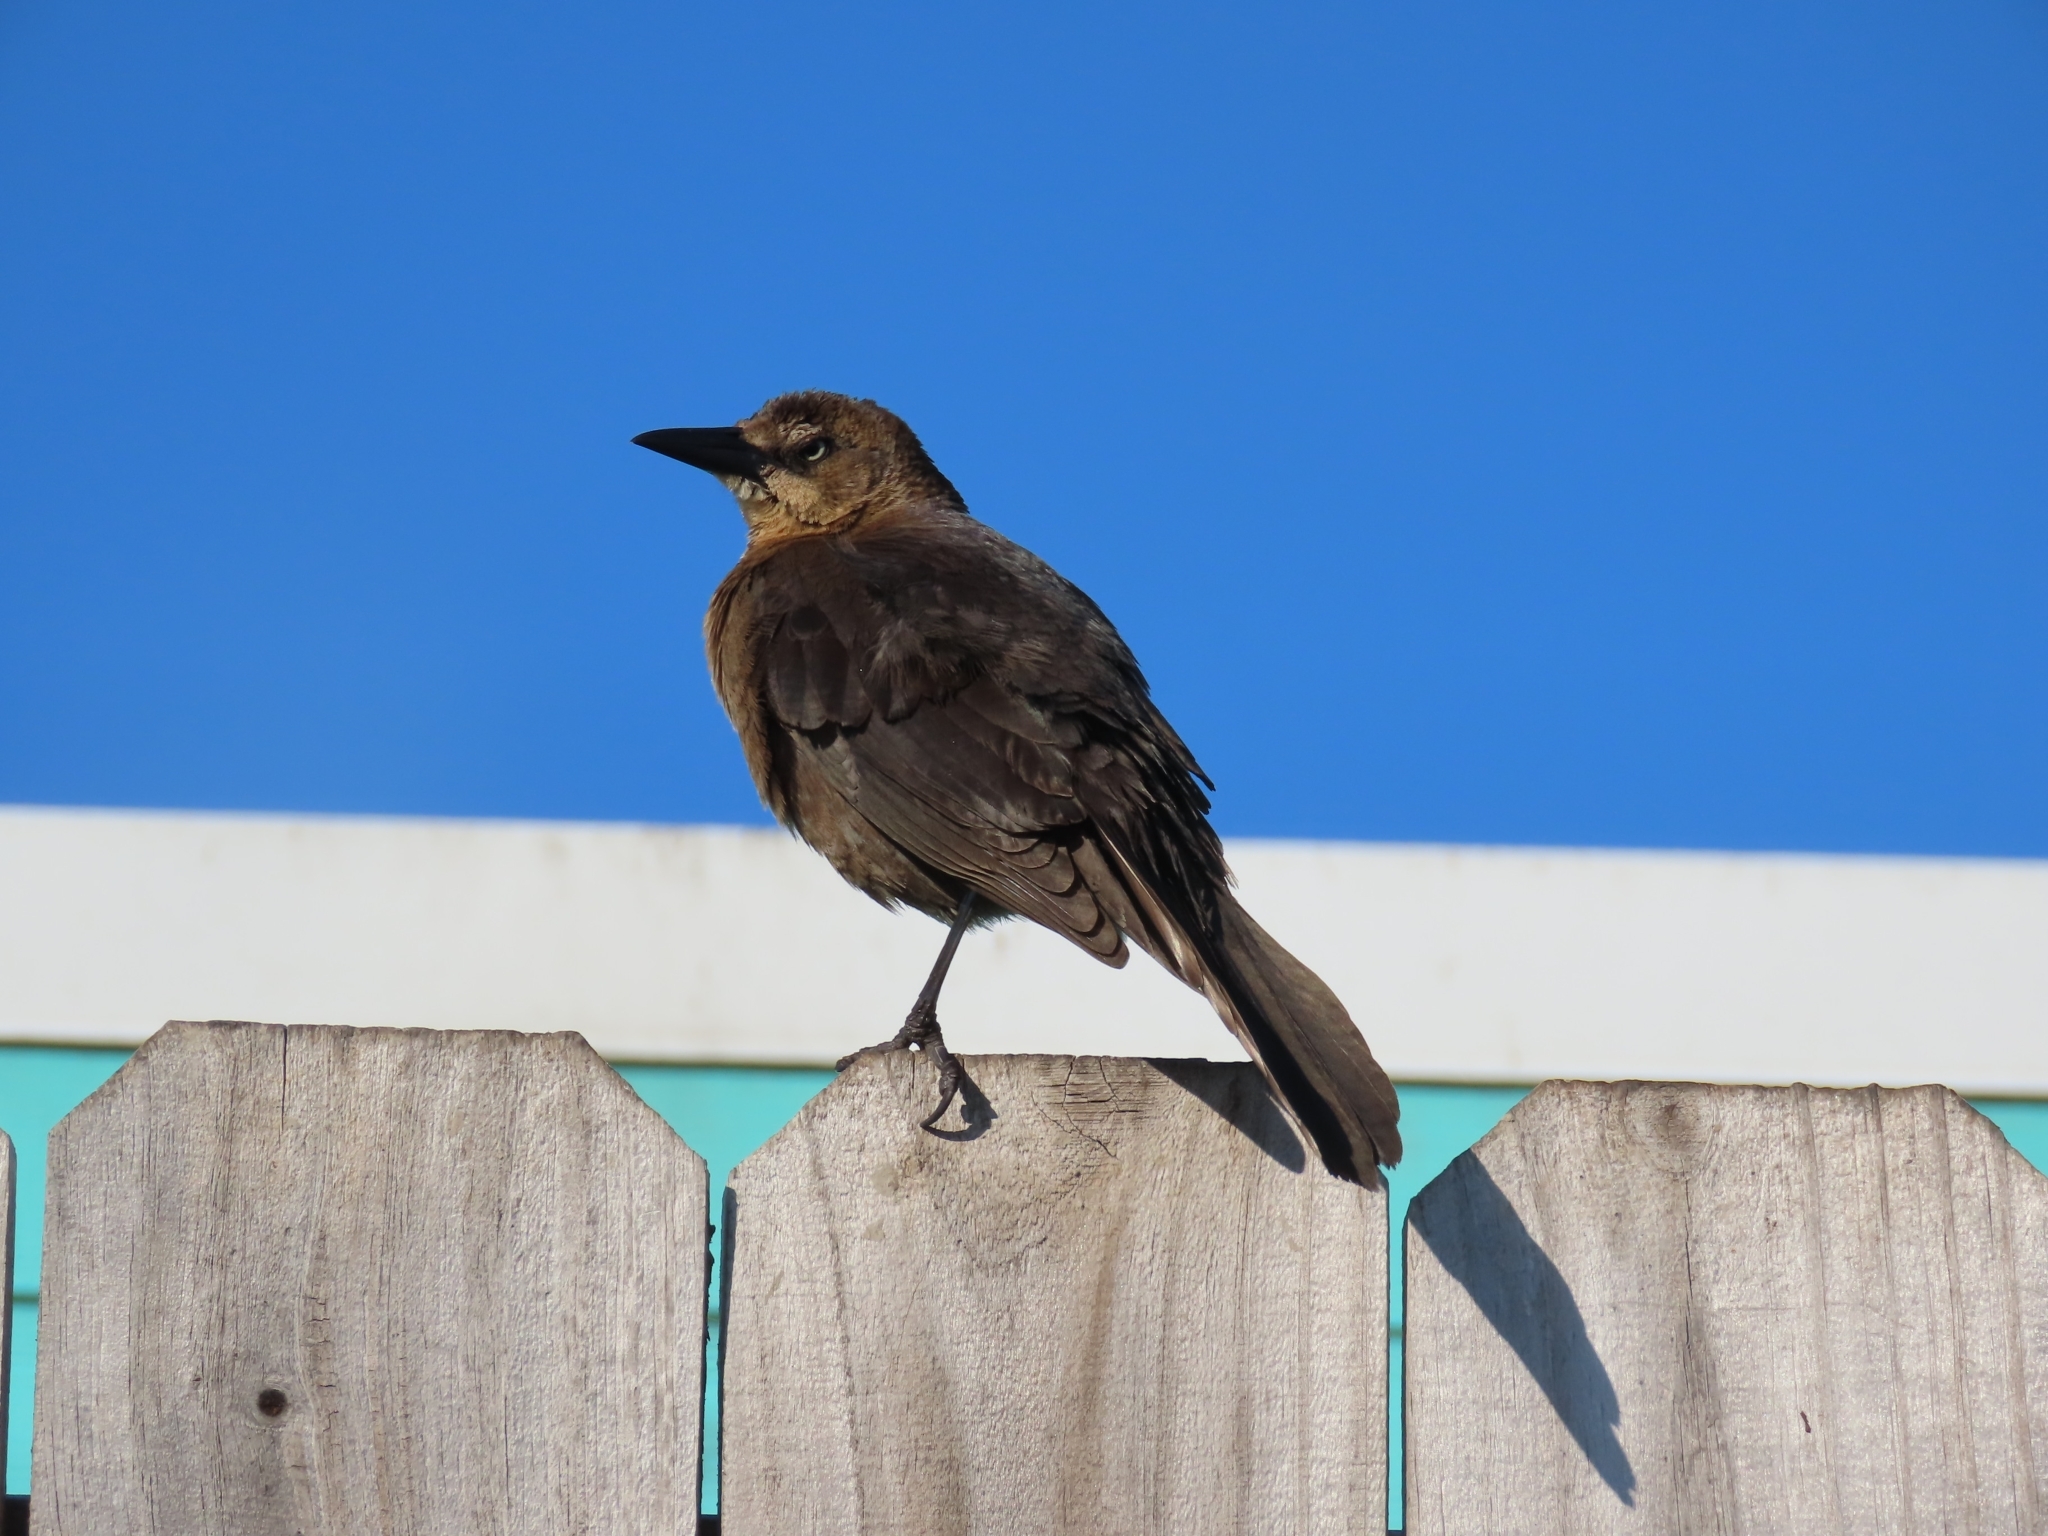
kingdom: Animalia
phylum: Chordata
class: Aves
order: Passeriformes
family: Icteridae
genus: Quiscalus
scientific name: Quiscalus mexicanus
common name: Great-tailed grackle
